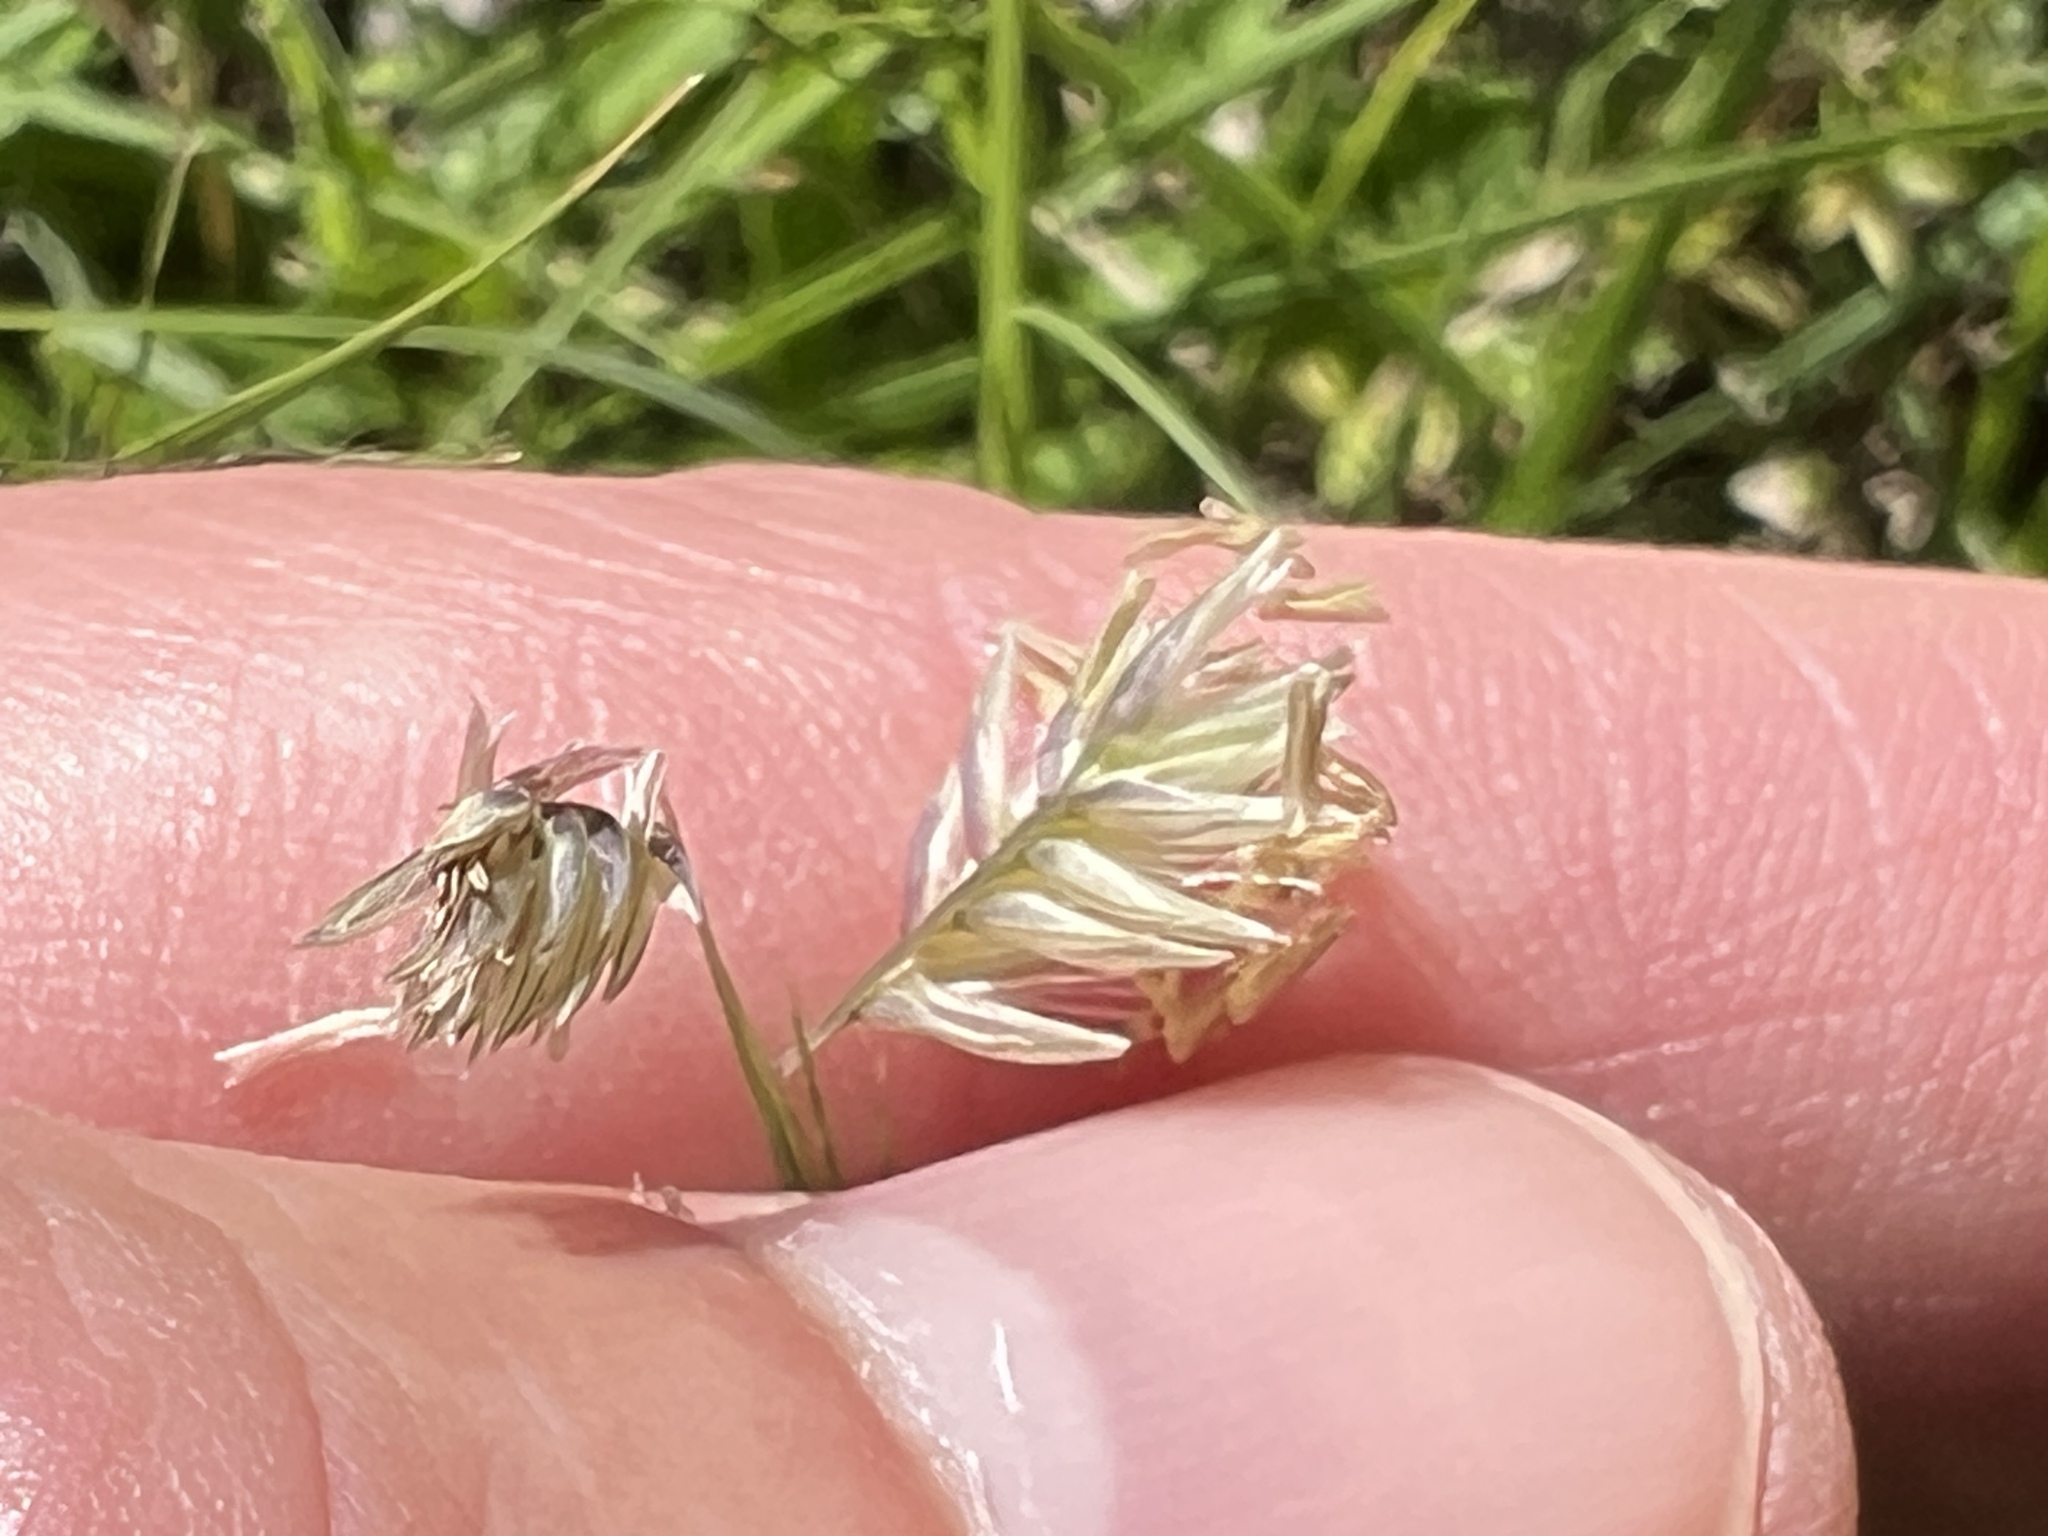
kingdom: Plantae
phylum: Tracheophyta
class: Liliopsida
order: Poales
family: Poaceae
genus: Bouteloua
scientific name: Bouteloua dactyloides
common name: Buffalo grass
